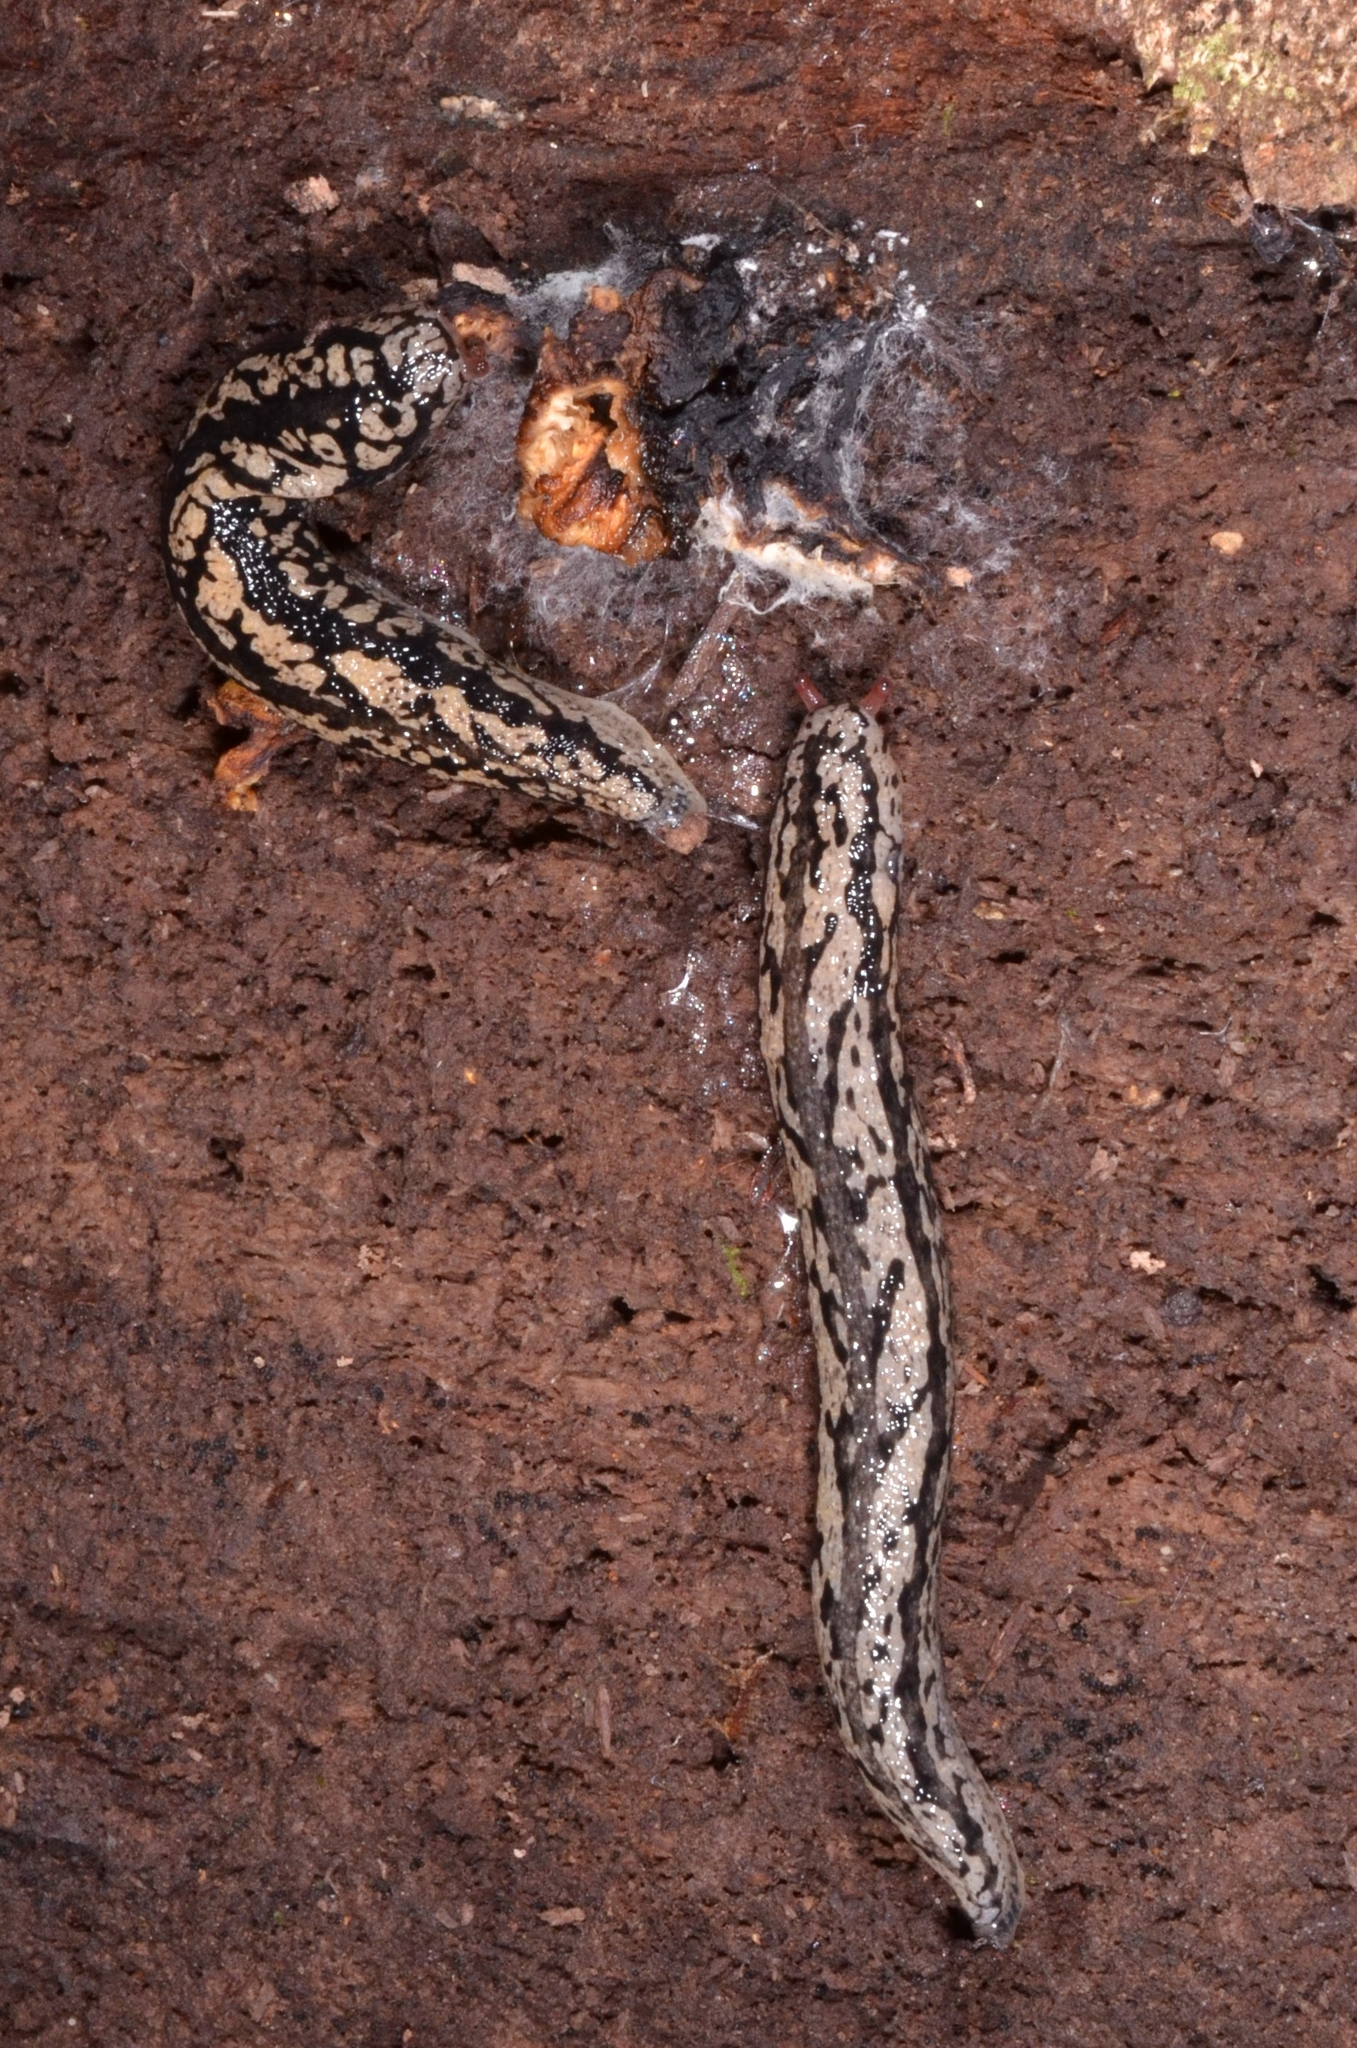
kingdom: Animalia
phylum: Mollusca
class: Gastropoda
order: Stylommatophora
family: Philomycidae
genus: Meghimatium
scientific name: Meghimatium pictum
